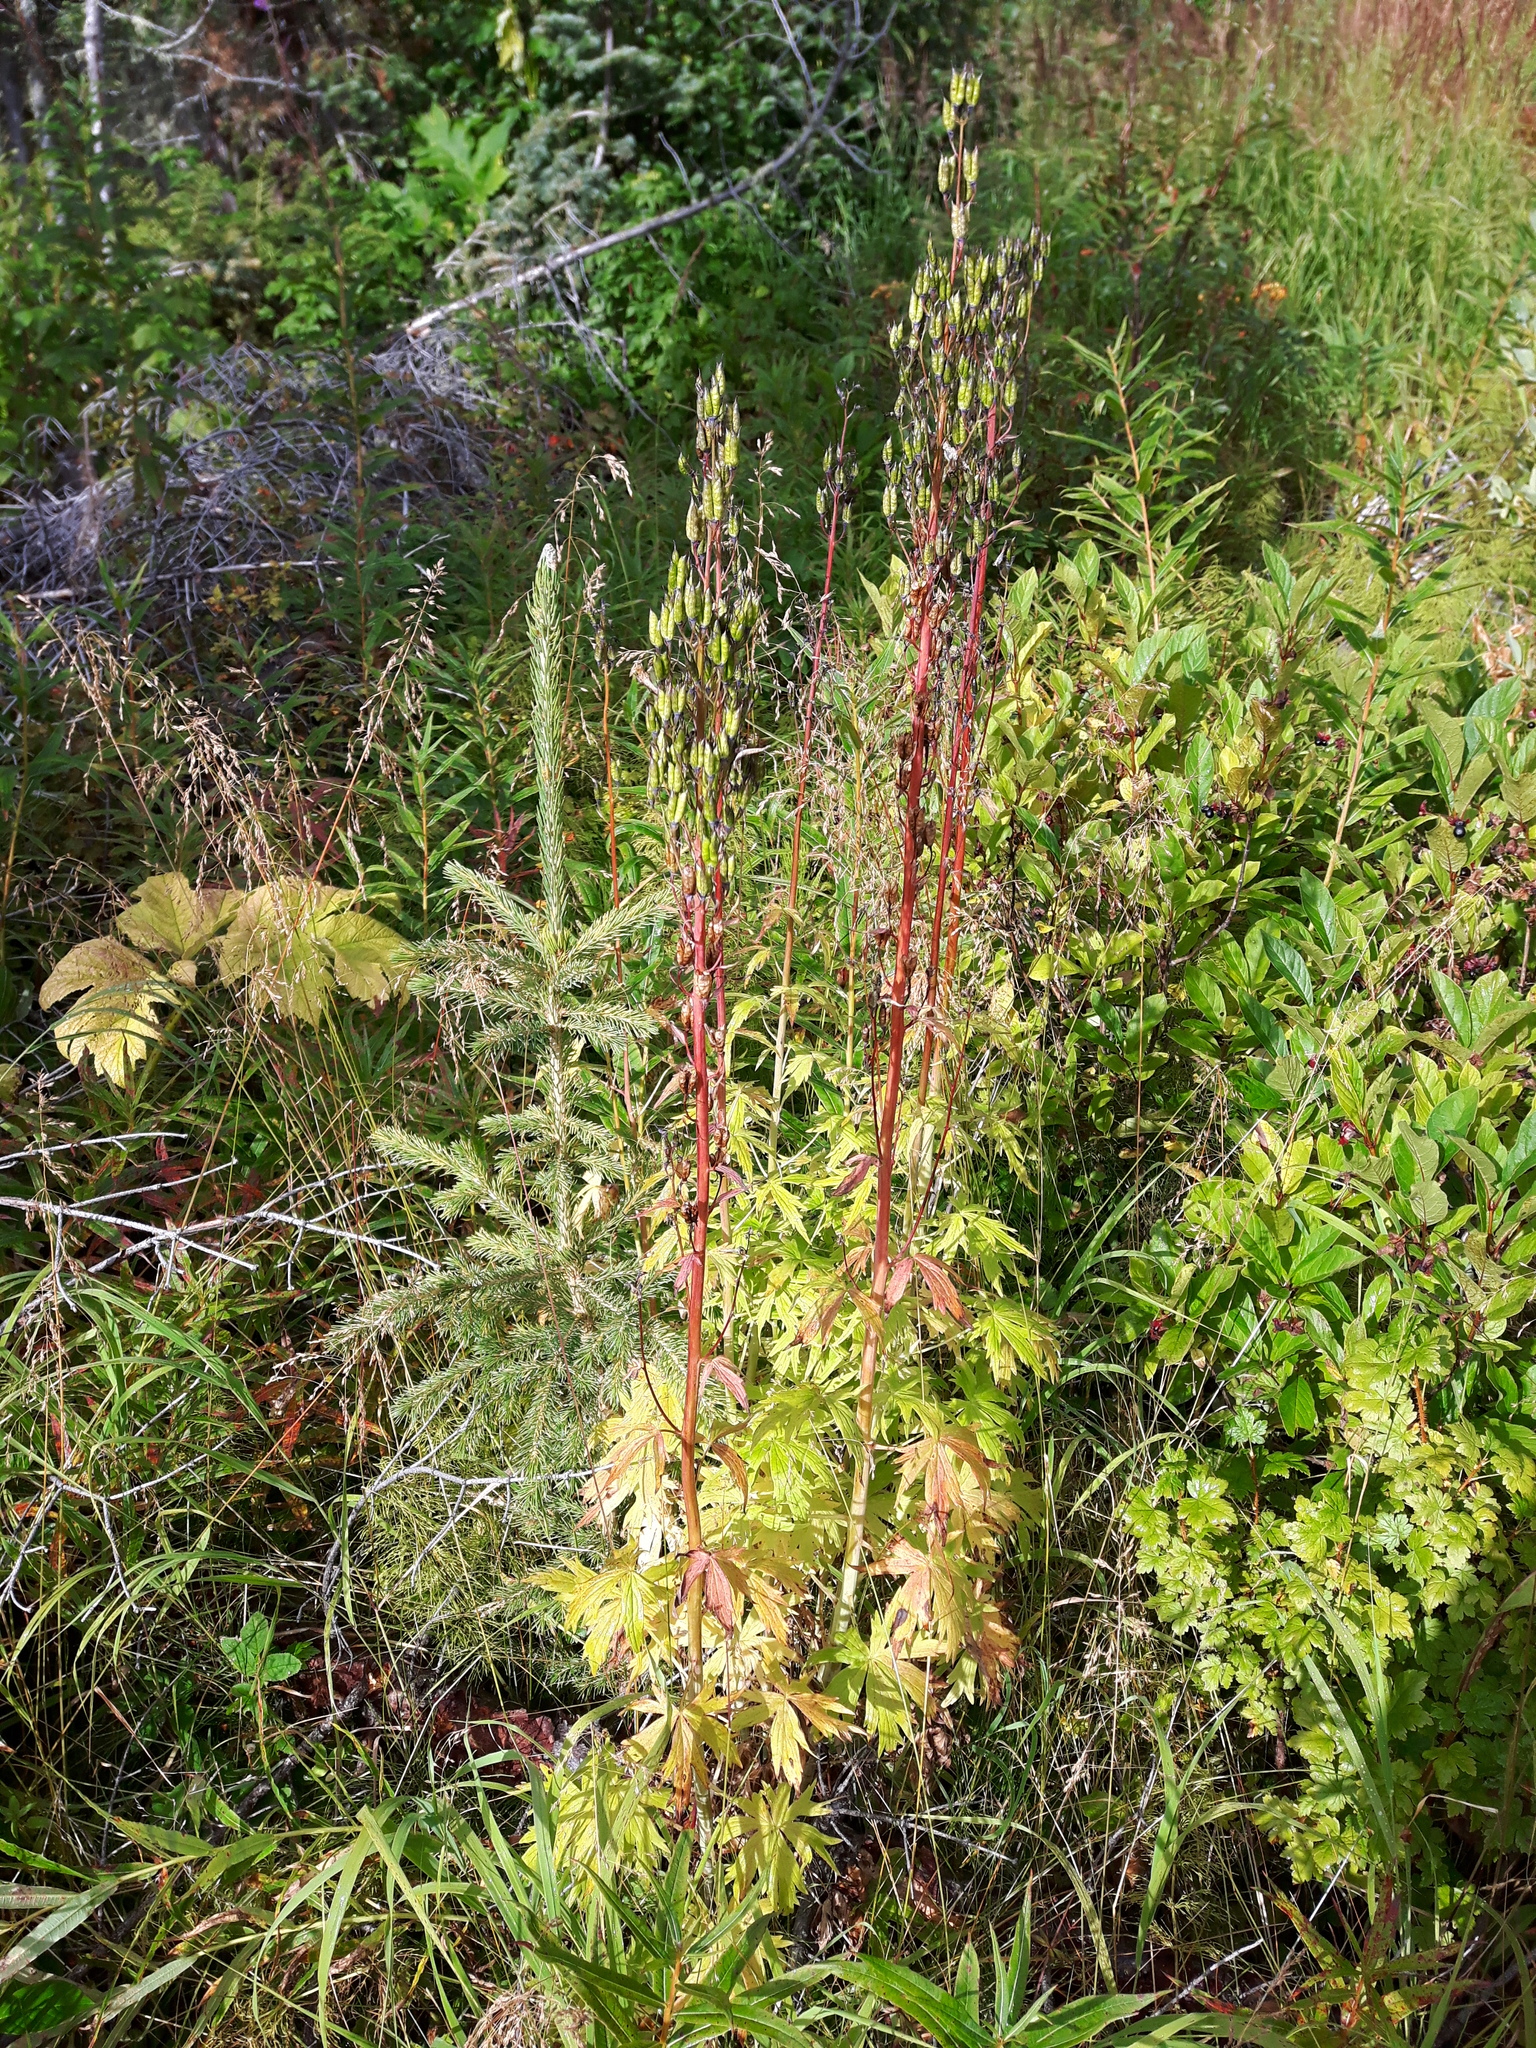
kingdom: Plantae
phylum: Tracheophyta
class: Magnoliopsida
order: Ranunculales
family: Ranunculaceae
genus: Delphinium
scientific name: Delphinium glaucum
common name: Brown's larkspur
